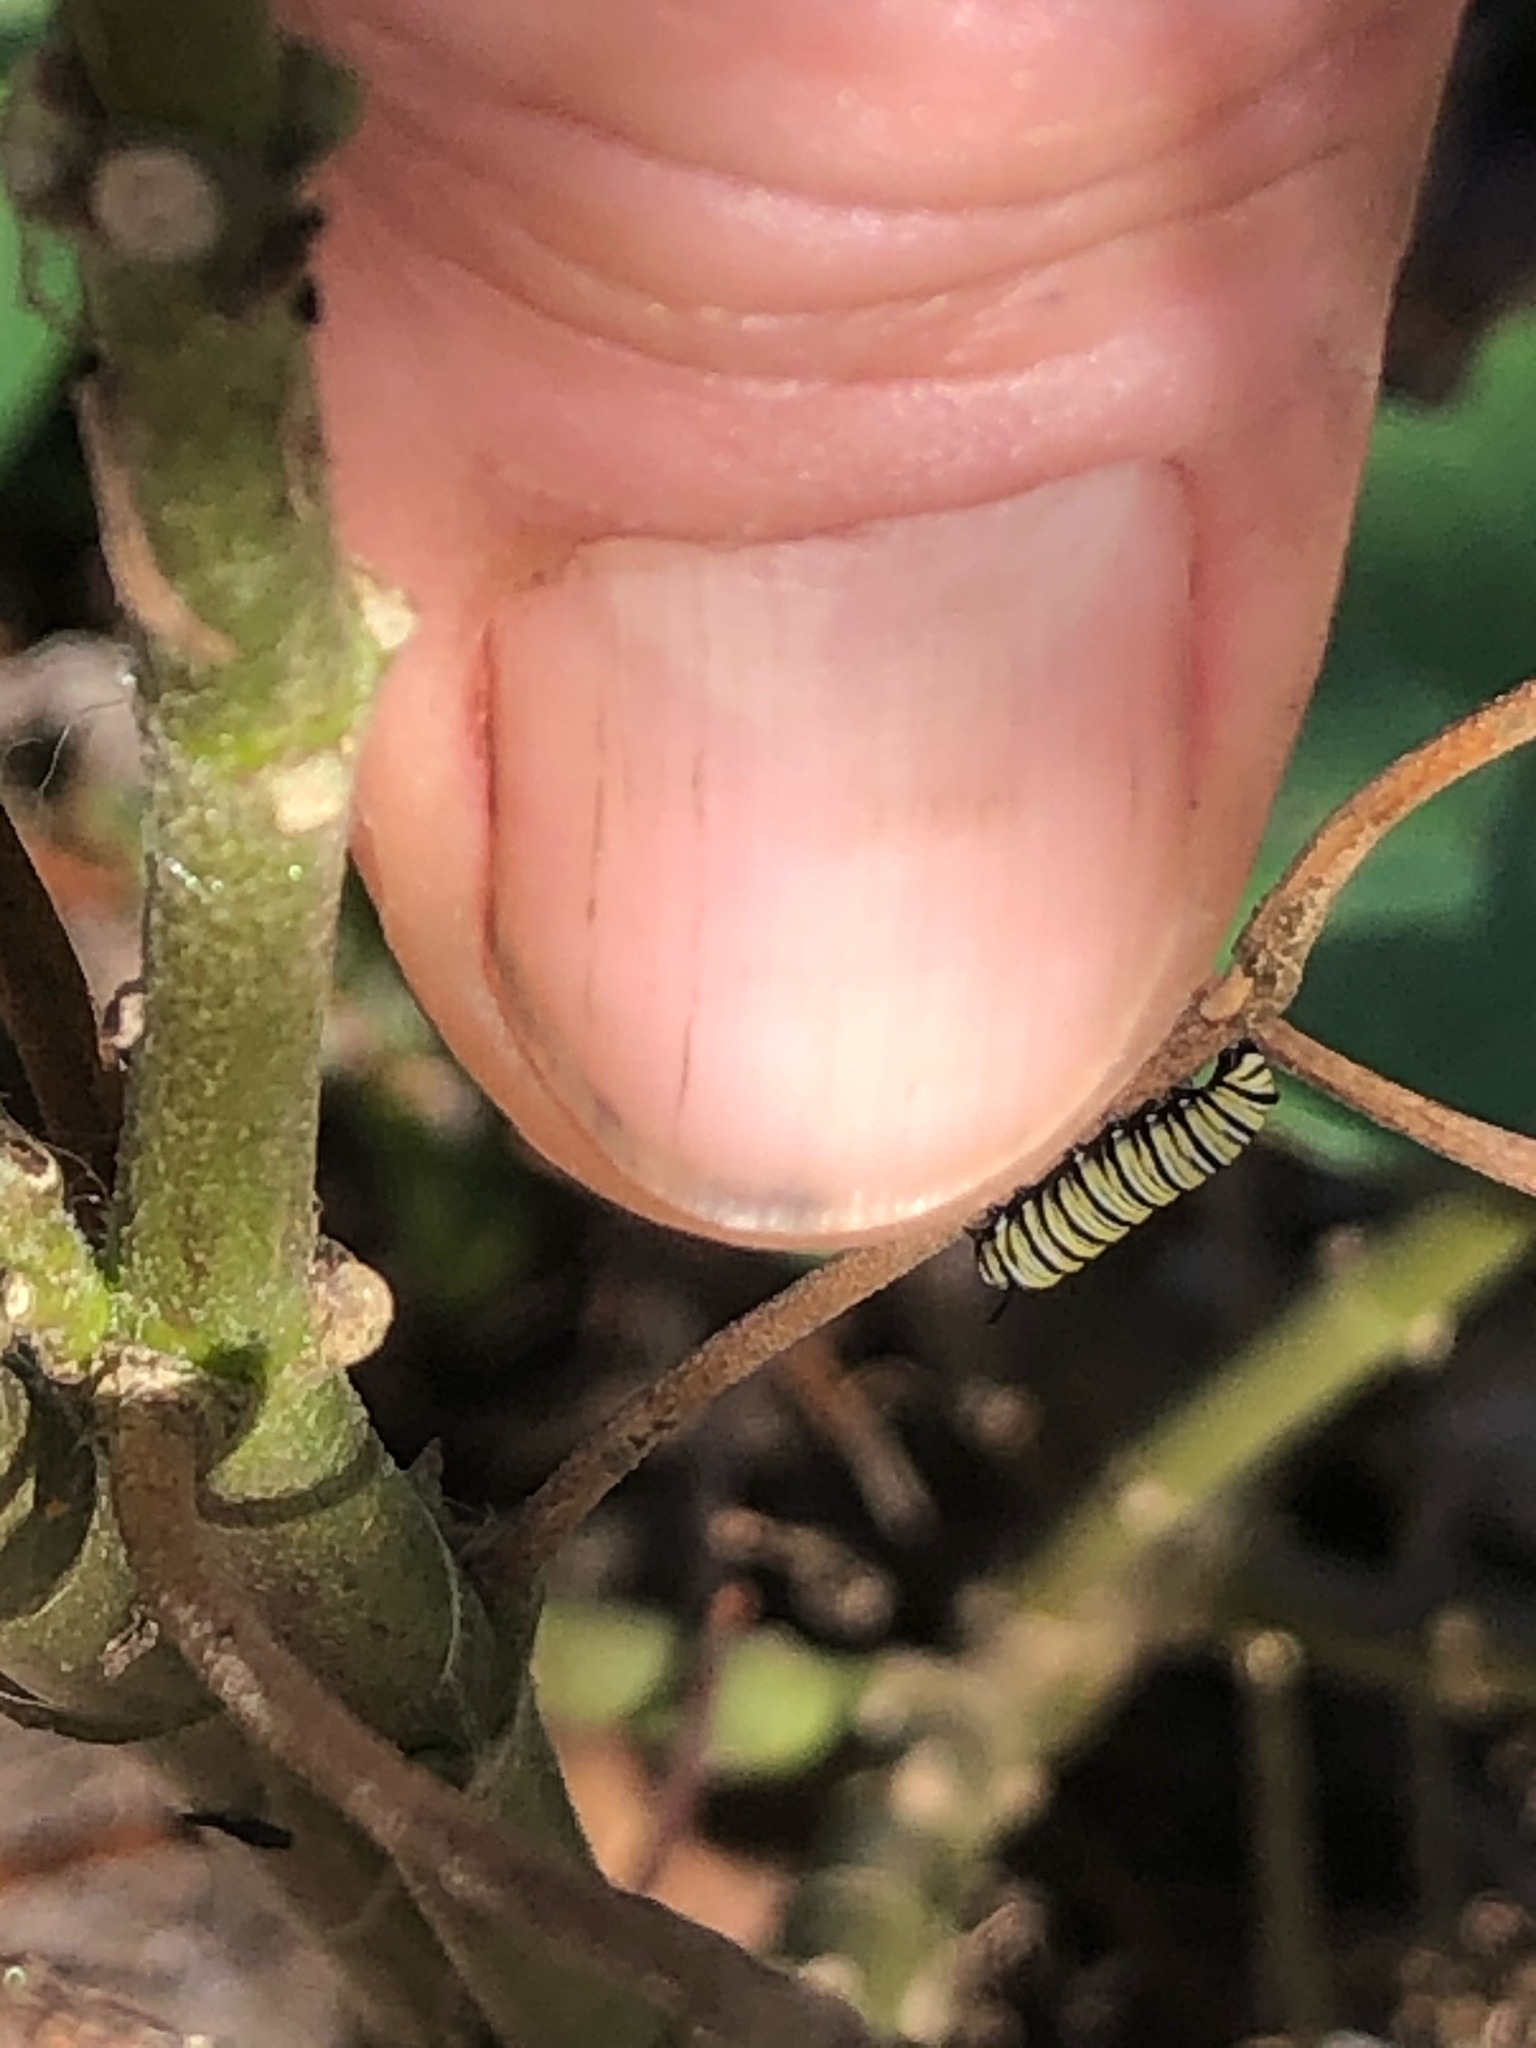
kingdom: Animalia
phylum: Arthropoda
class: Insecta
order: Lepidoptera
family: Nymphalidae
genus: Danaus
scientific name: Danaus plexippus
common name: Monarch
